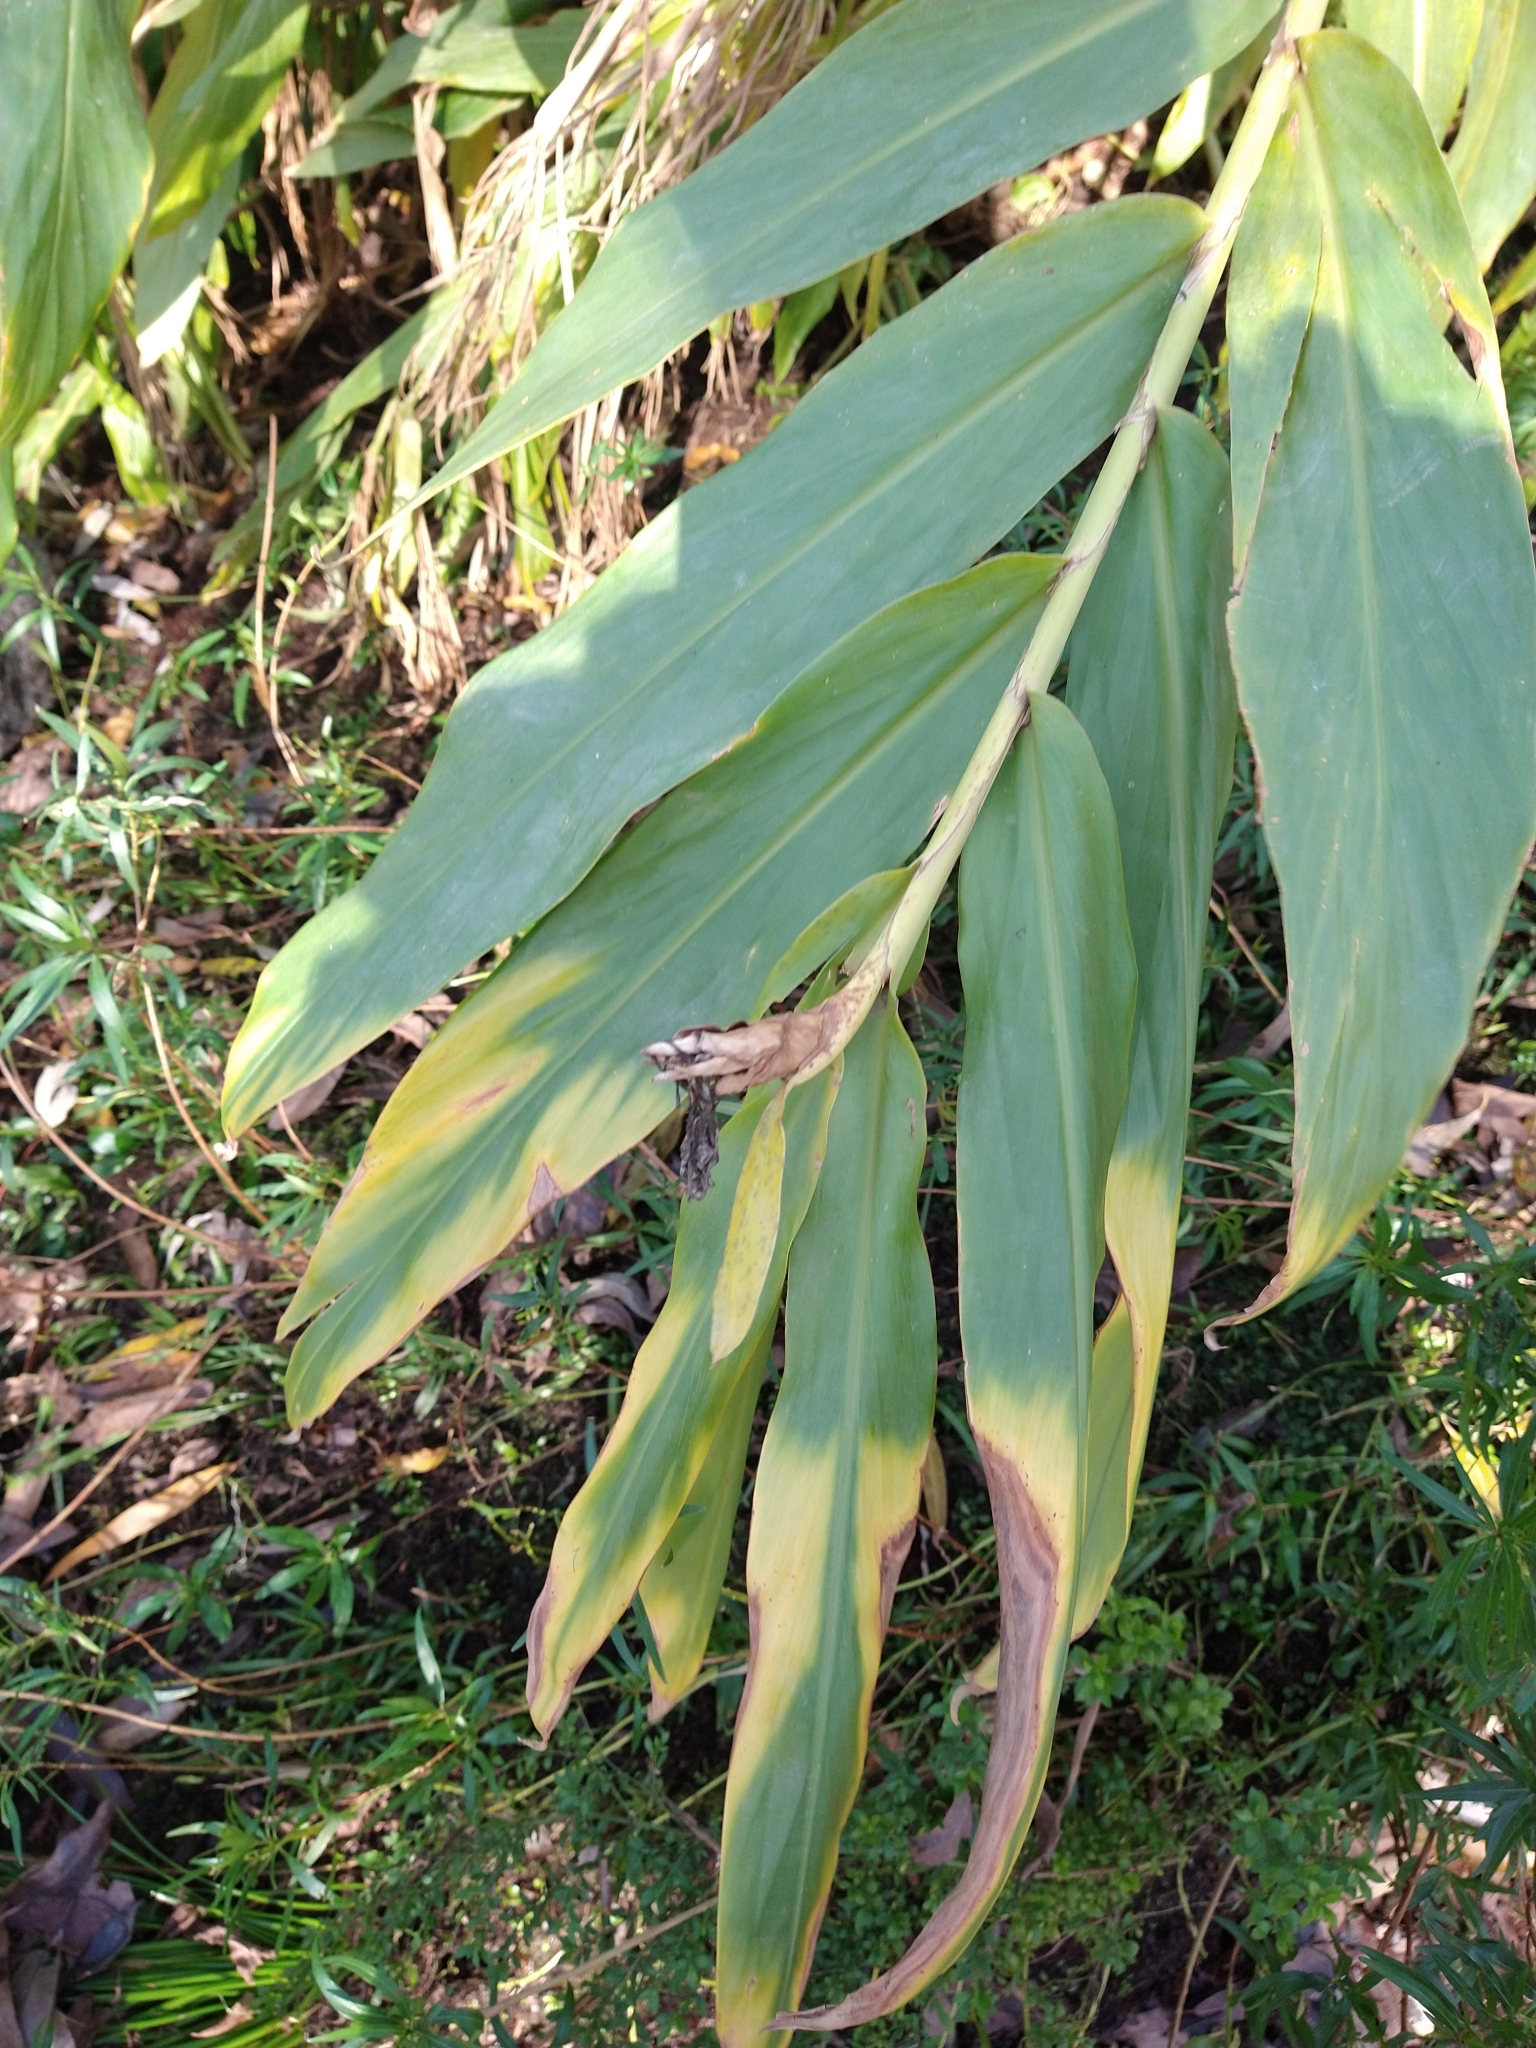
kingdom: Plantae
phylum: Tracheophyta
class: Liliopsida
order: Zingiberales
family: Zingiberaceae
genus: Hedychium
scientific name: Hedychium coronarium
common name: White garland-lily
